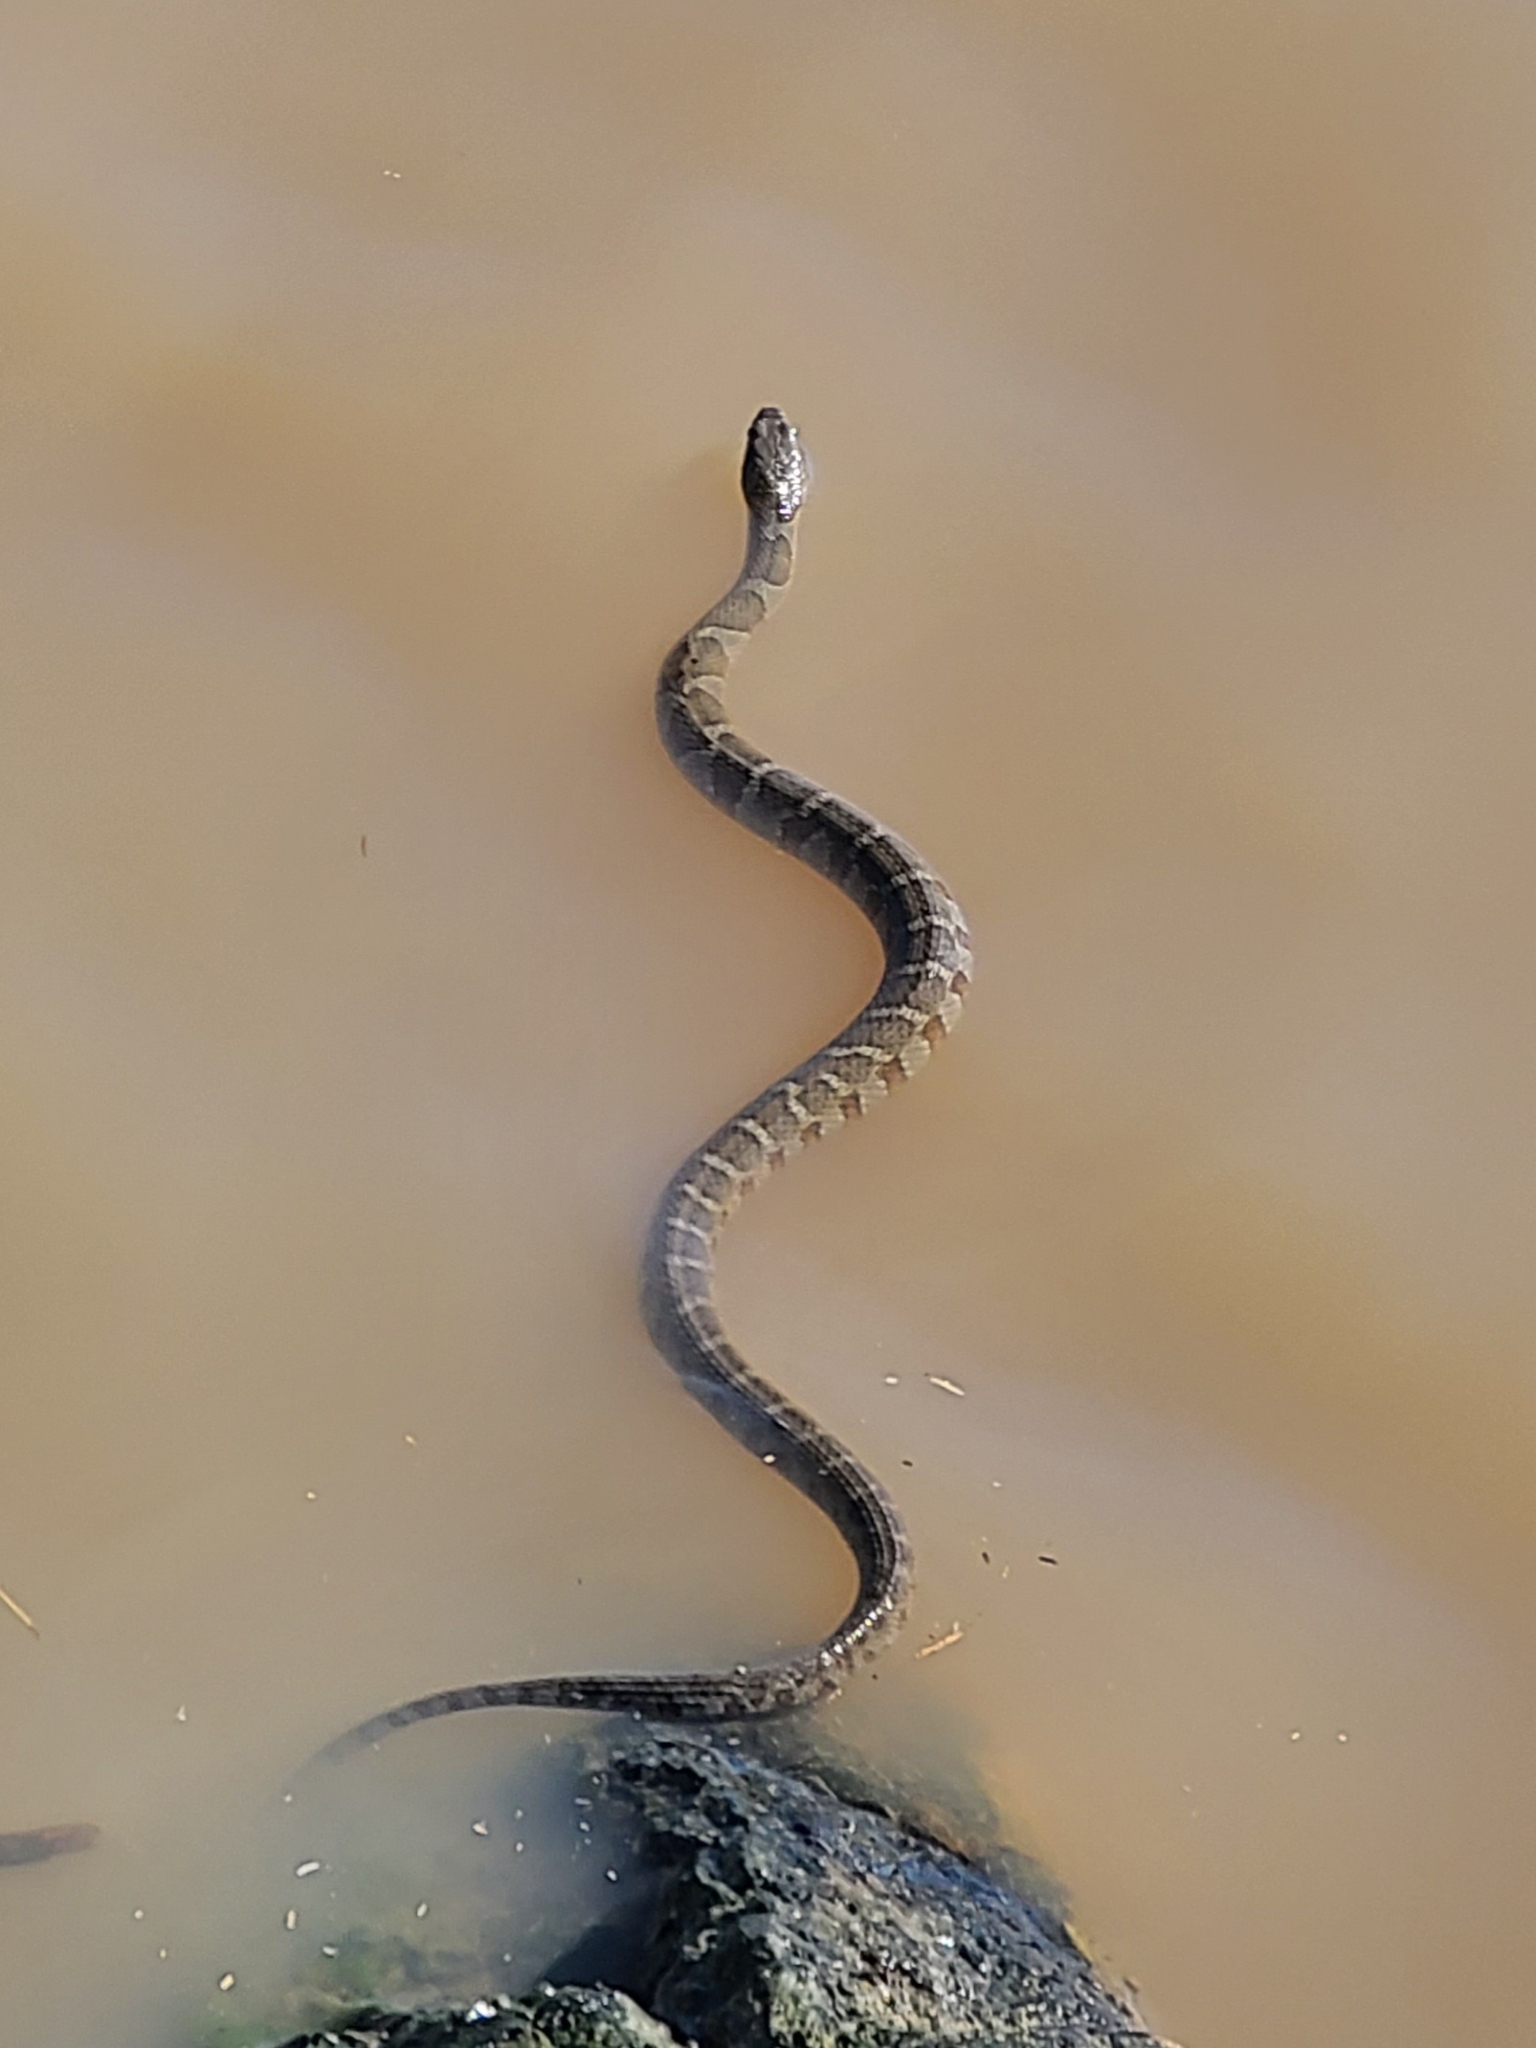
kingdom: Animalia
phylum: Chordata
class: Squamata
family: Colubridae
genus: Nerodia
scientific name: Nerodia sipedon
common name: Northern water snake
